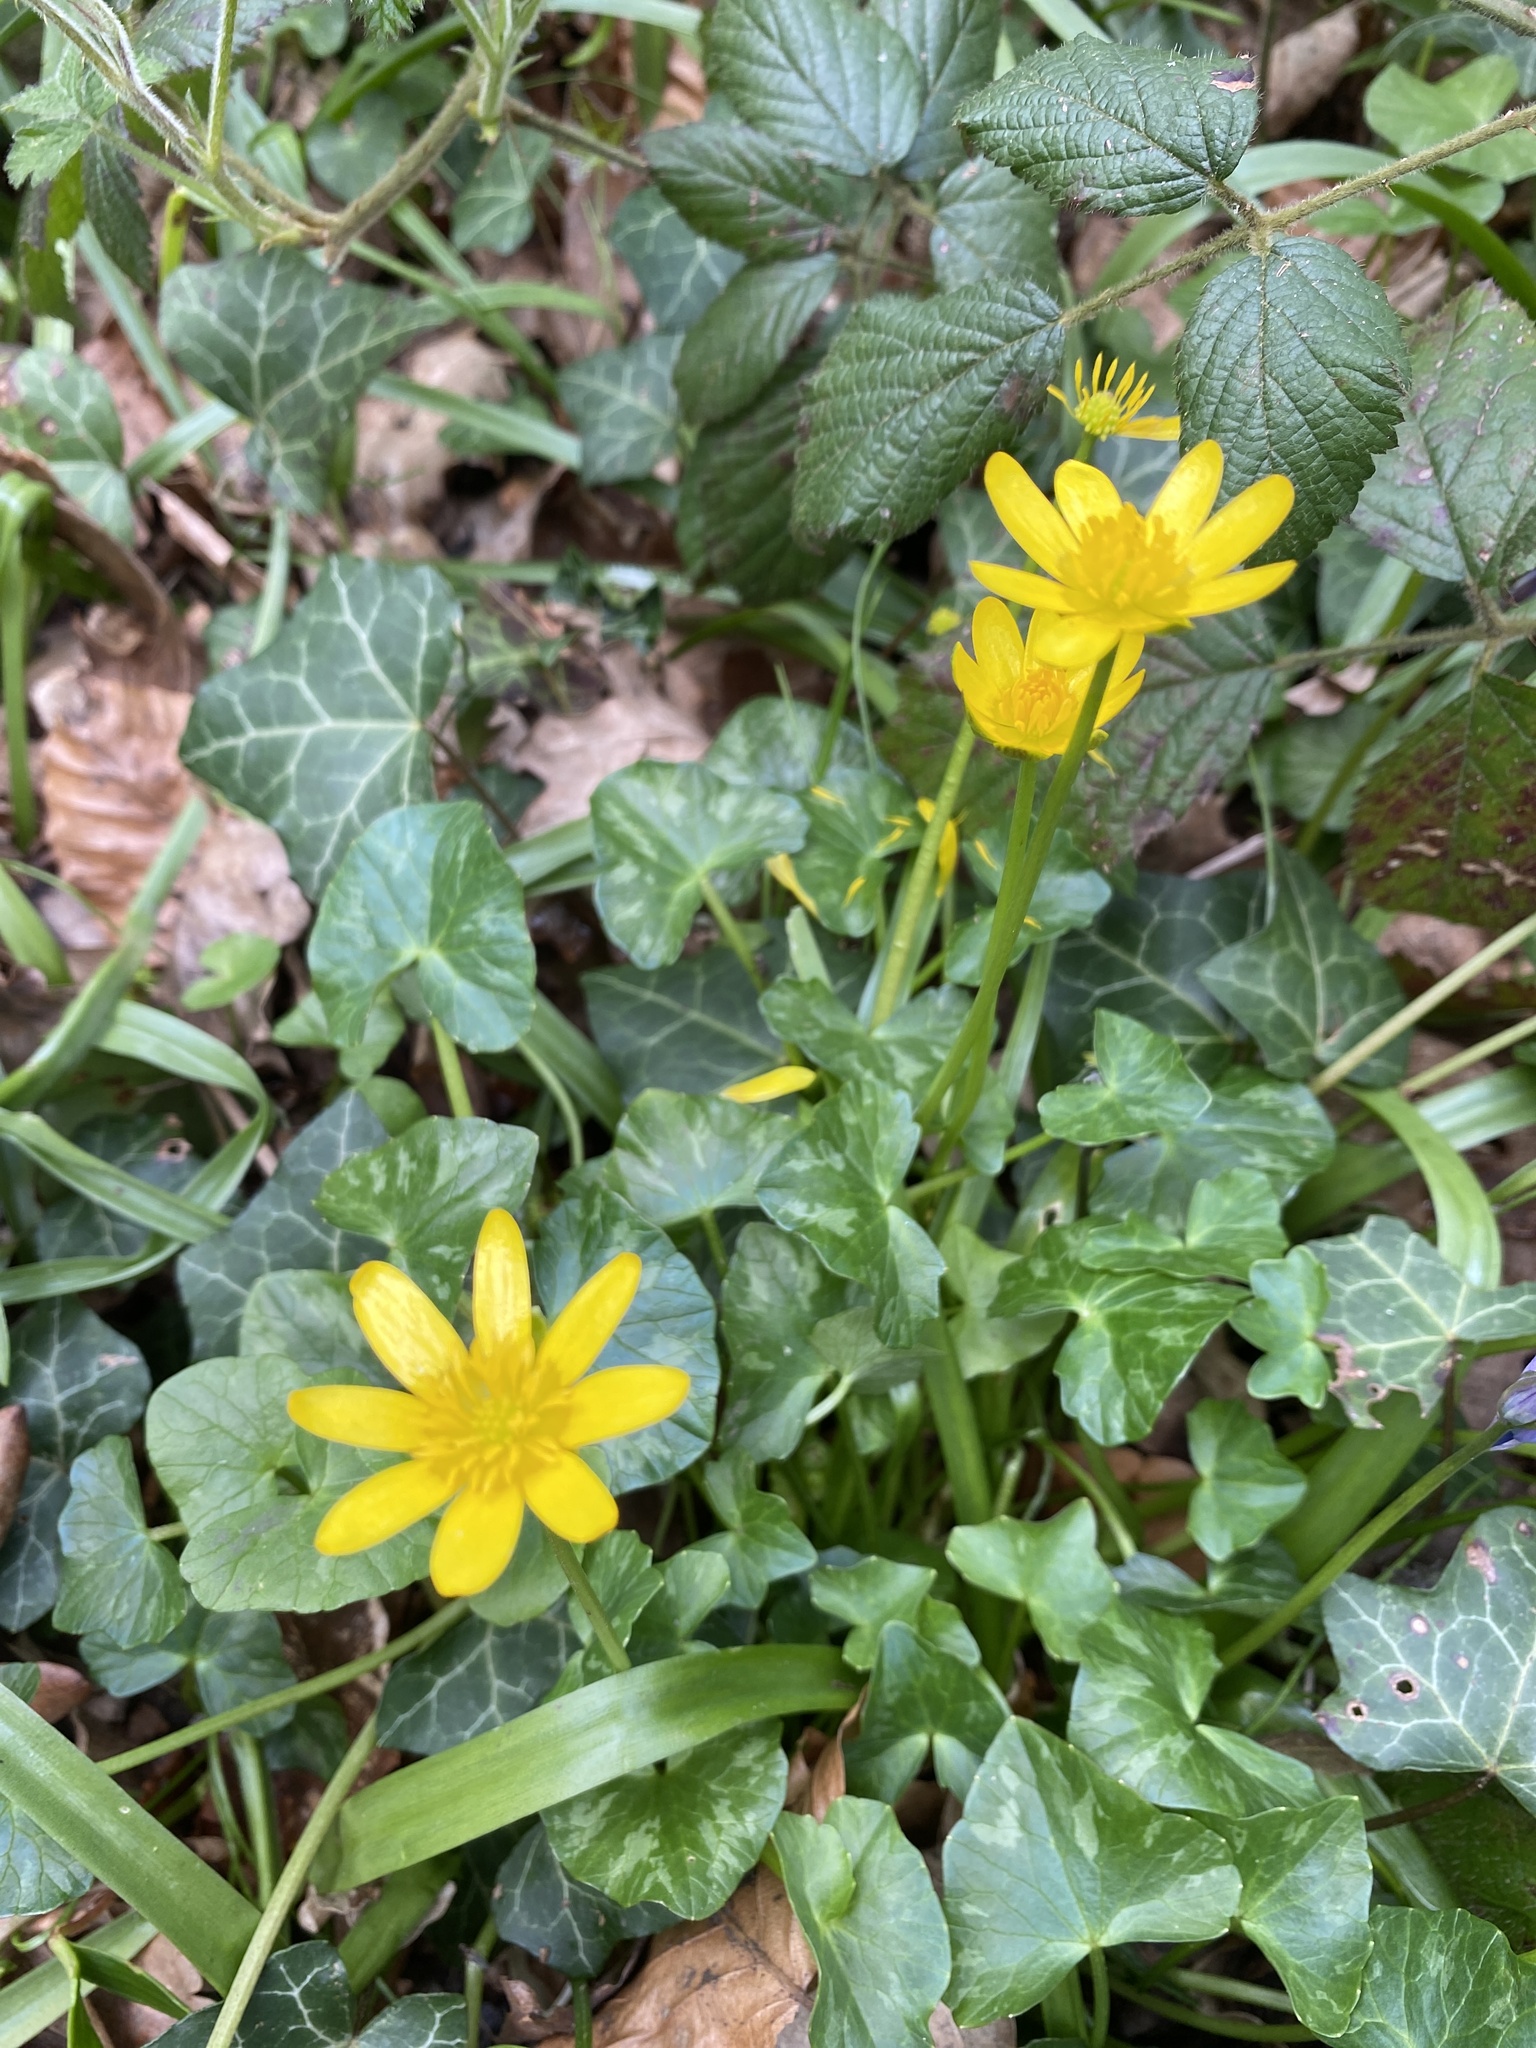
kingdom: Plantae
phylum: Tracheophyta
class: Magnoliopsida
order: Ranunculales
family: Ranunculaceae
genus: Ficaria
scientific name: Ficaria verna
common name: Lesser celandine
